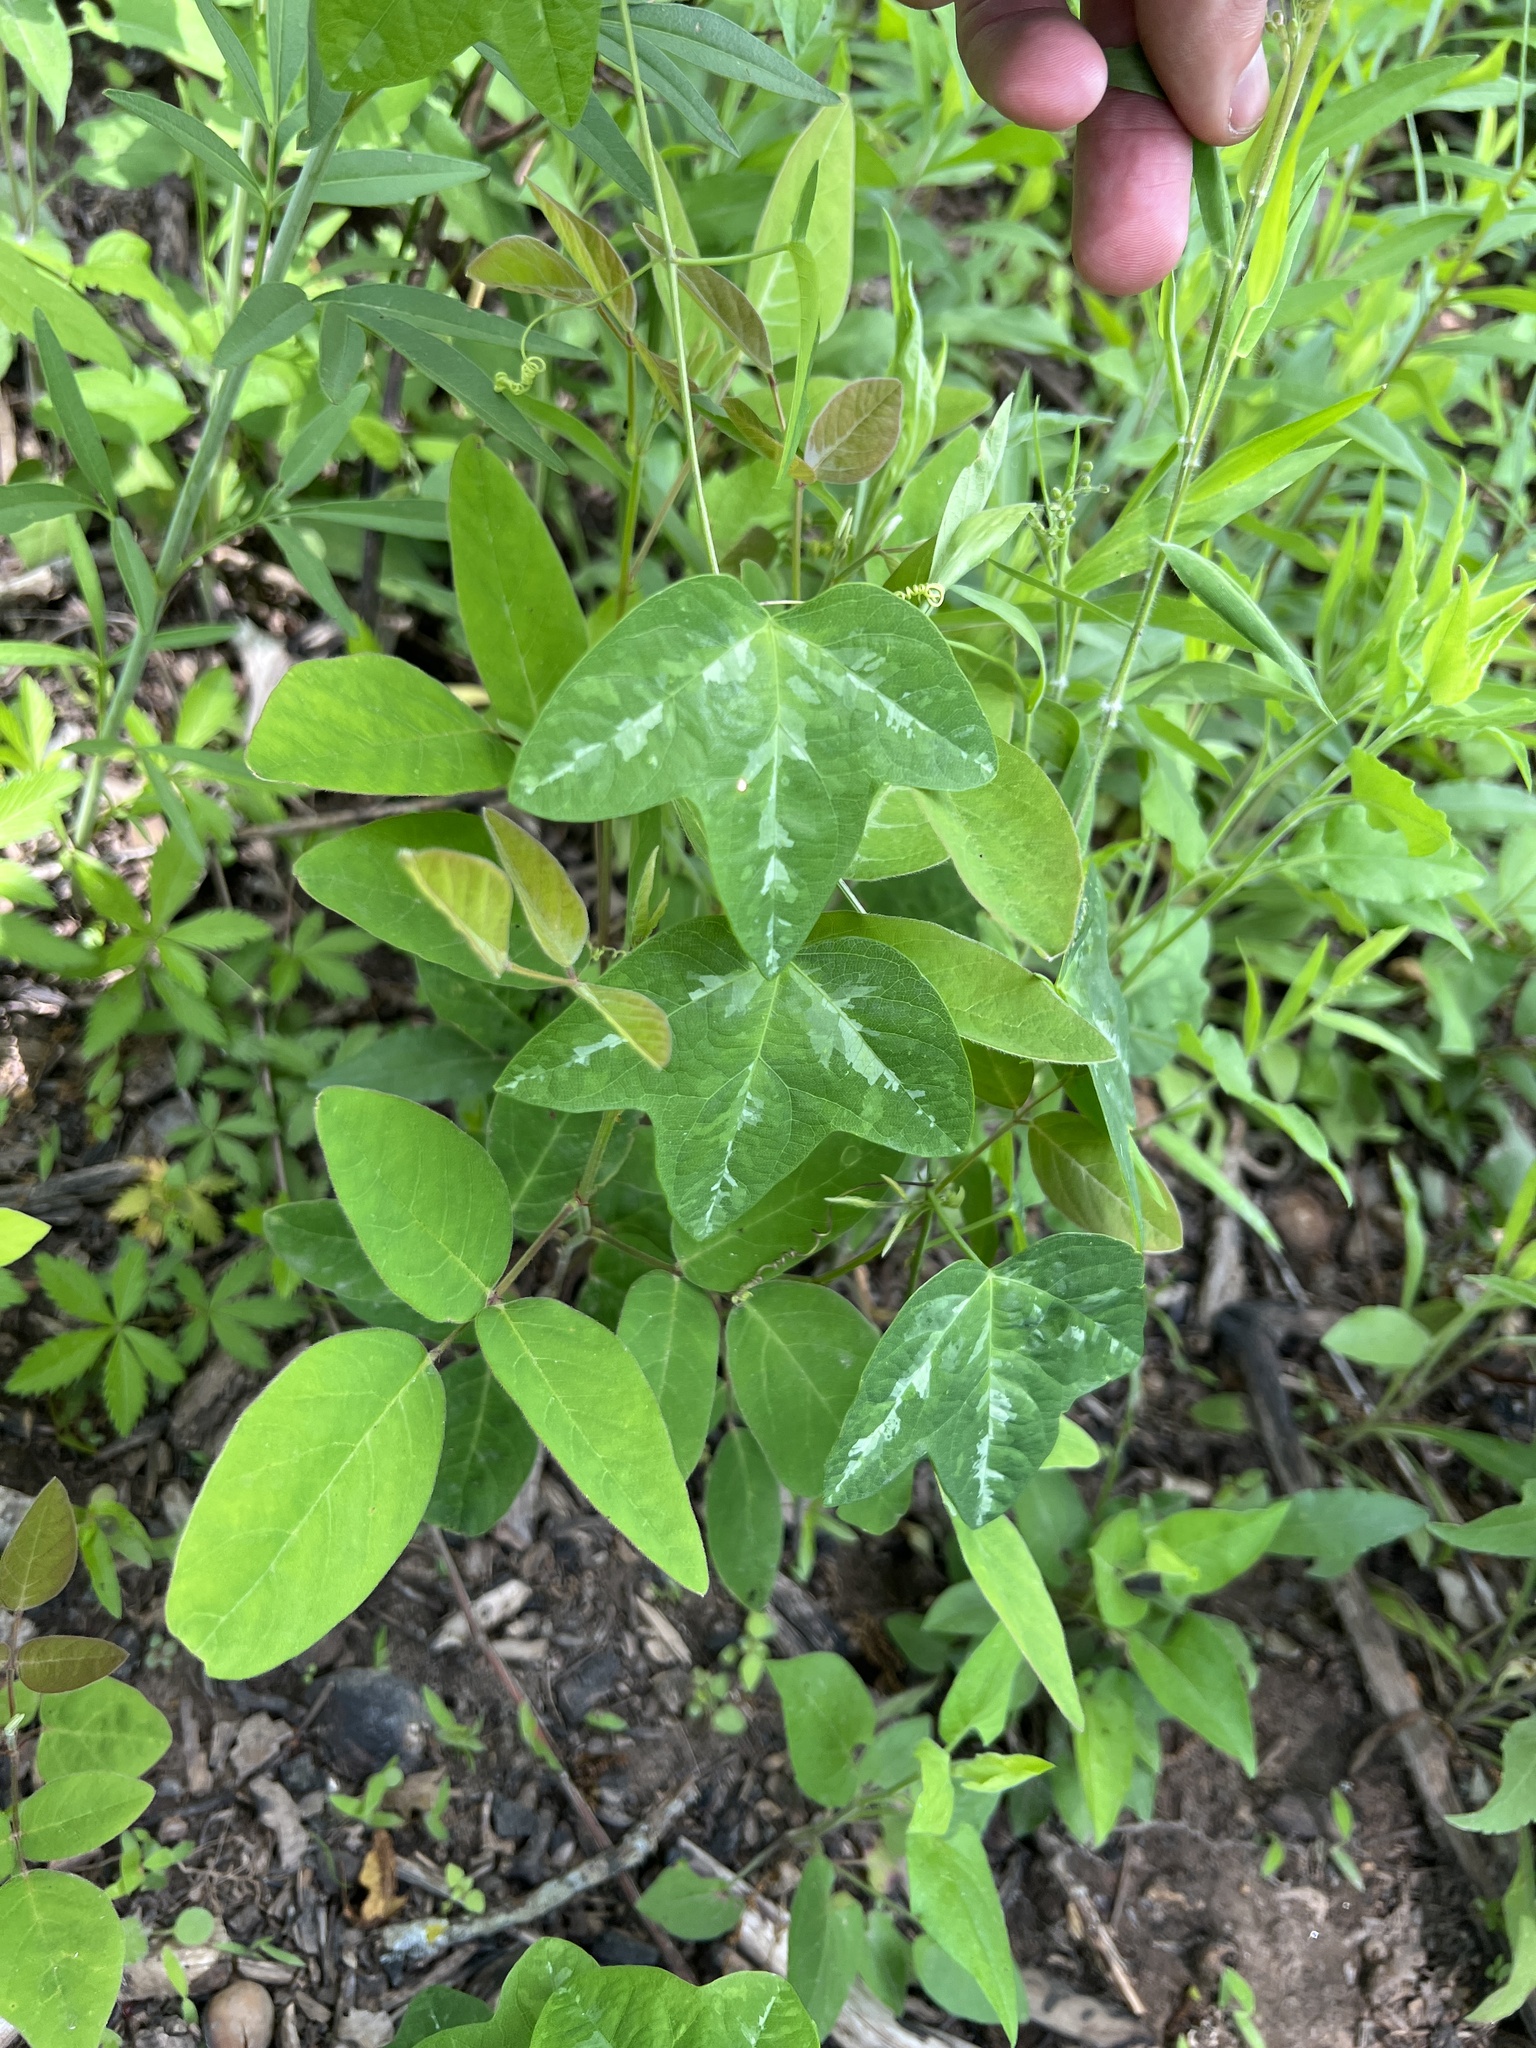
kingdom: Plantae
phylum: Tracheophyta
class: Magnoliopsida
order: Malpighiales
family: Passifloraceae
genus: Passiflora
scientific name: Passiflora lutea
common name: Yellow passionflower
